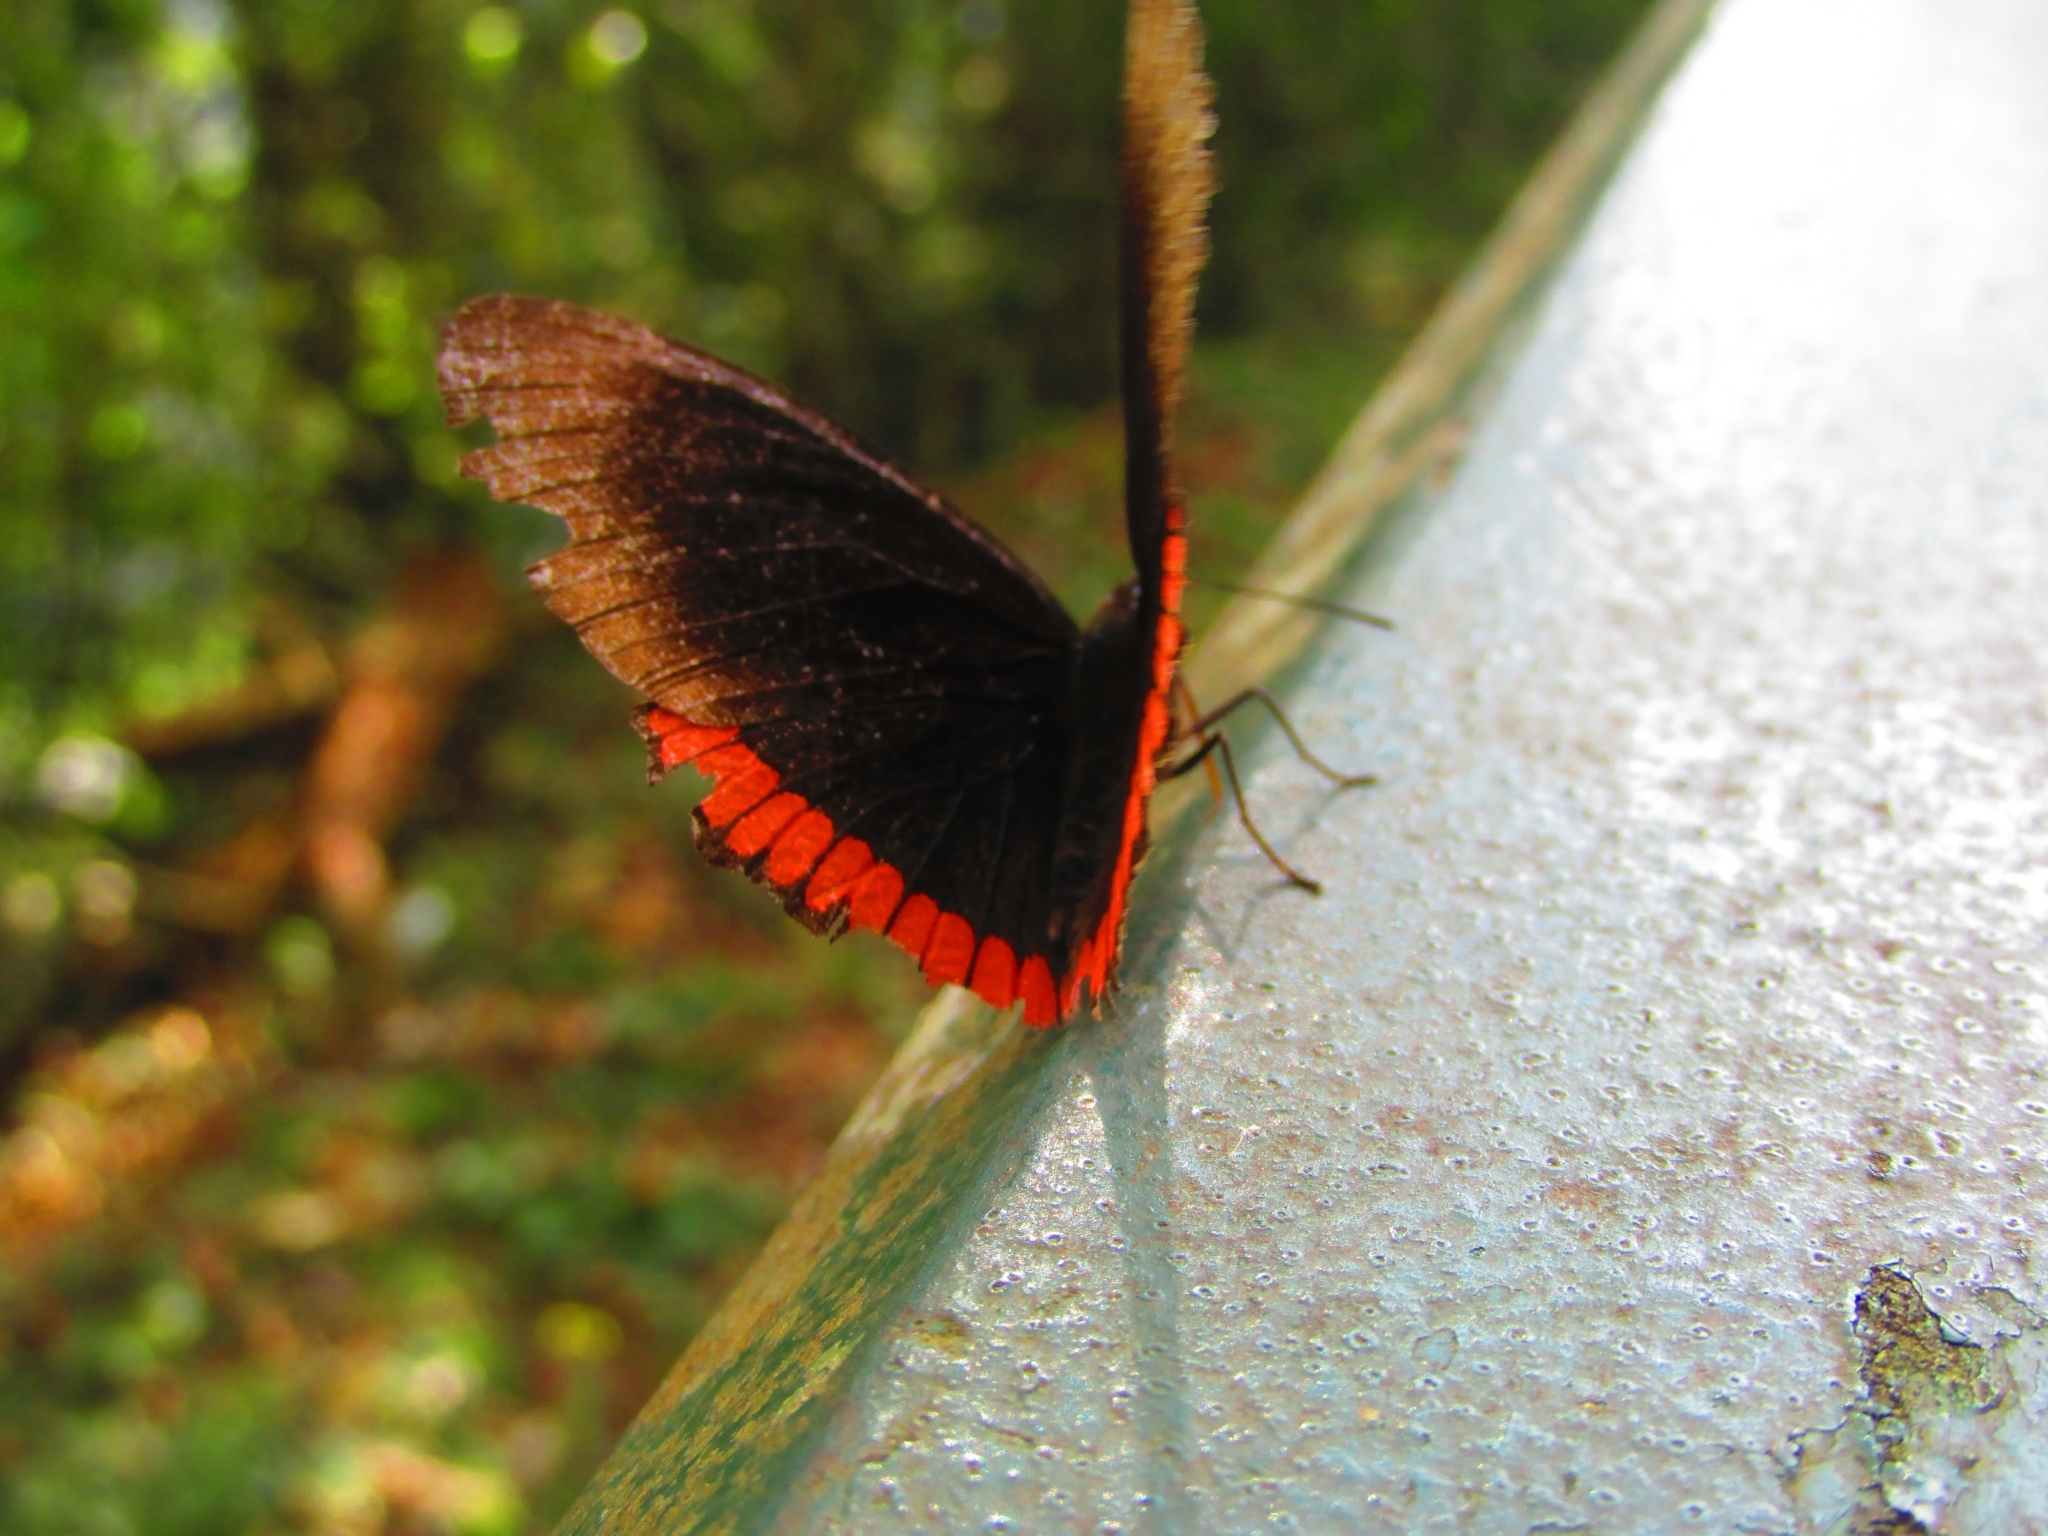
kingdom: Animalia
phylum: Arthropoda
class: Insecta
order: Lepidoptera
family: Sesiidae
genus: Sesia
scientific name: Sesia Biblis hyperia
